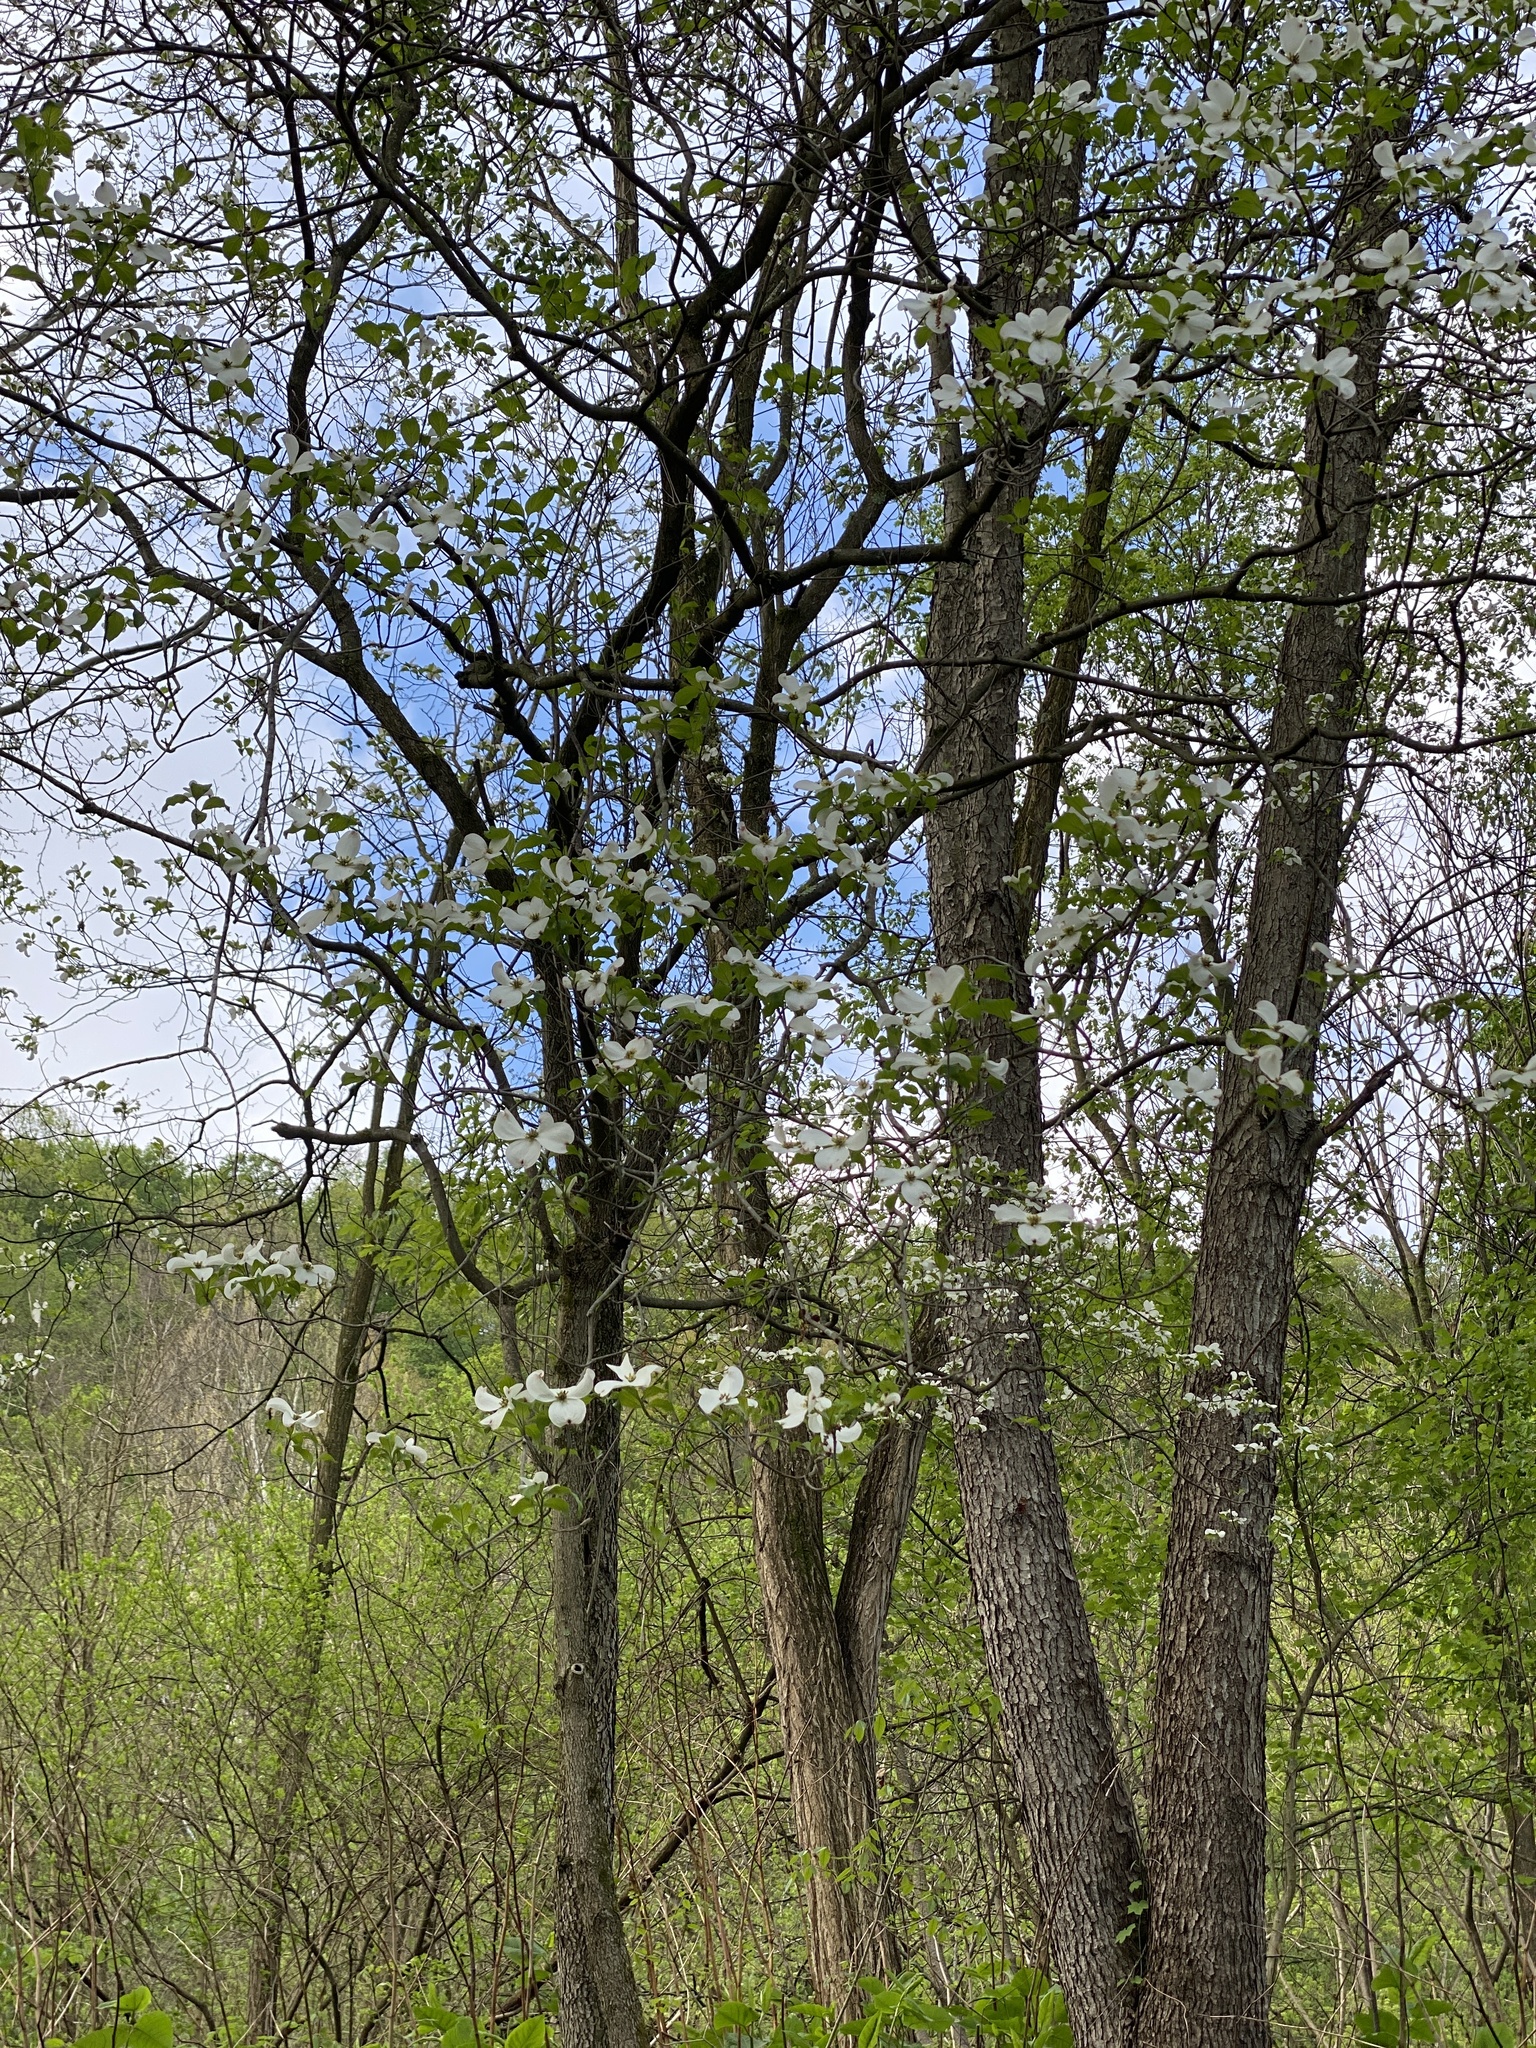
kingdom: Plantae
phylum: Tracheophyta
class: Magnoliopsida
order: Cornales
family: Cornaceae
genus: Cornus
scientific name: Cornus florida
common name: Flowering dogwood
